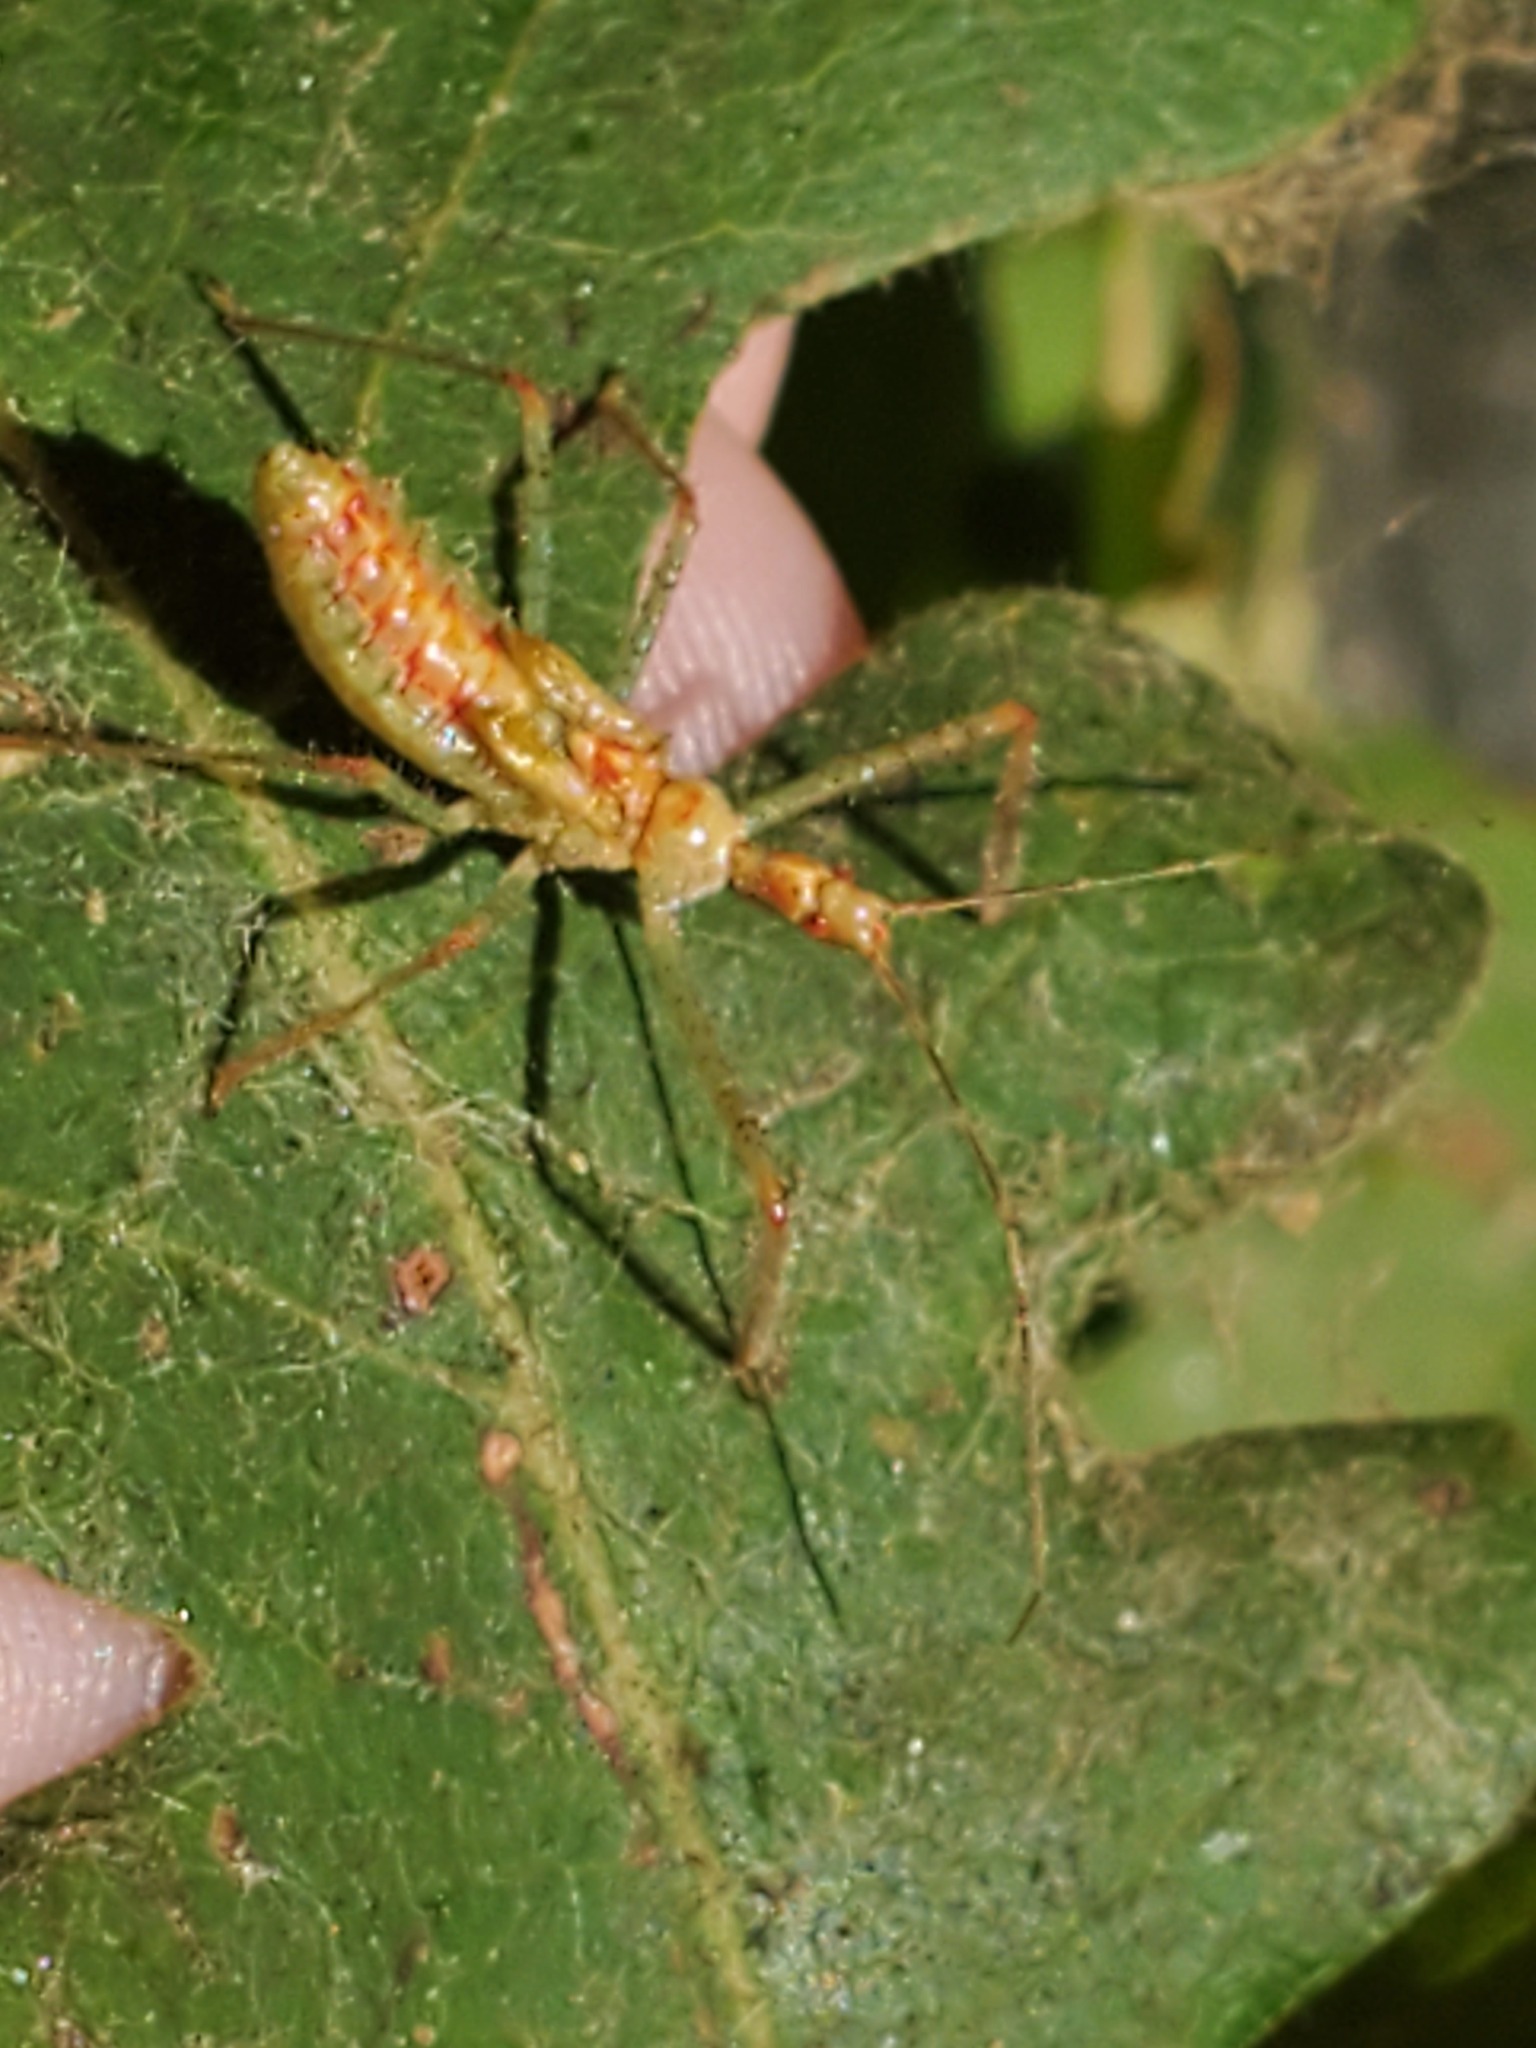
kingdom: Animalia
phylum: Arthropoda
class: Insecta
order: Hemiptera
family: Reduviidae
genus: Zelus
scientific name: Zelus renardii
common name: Assassin bug
